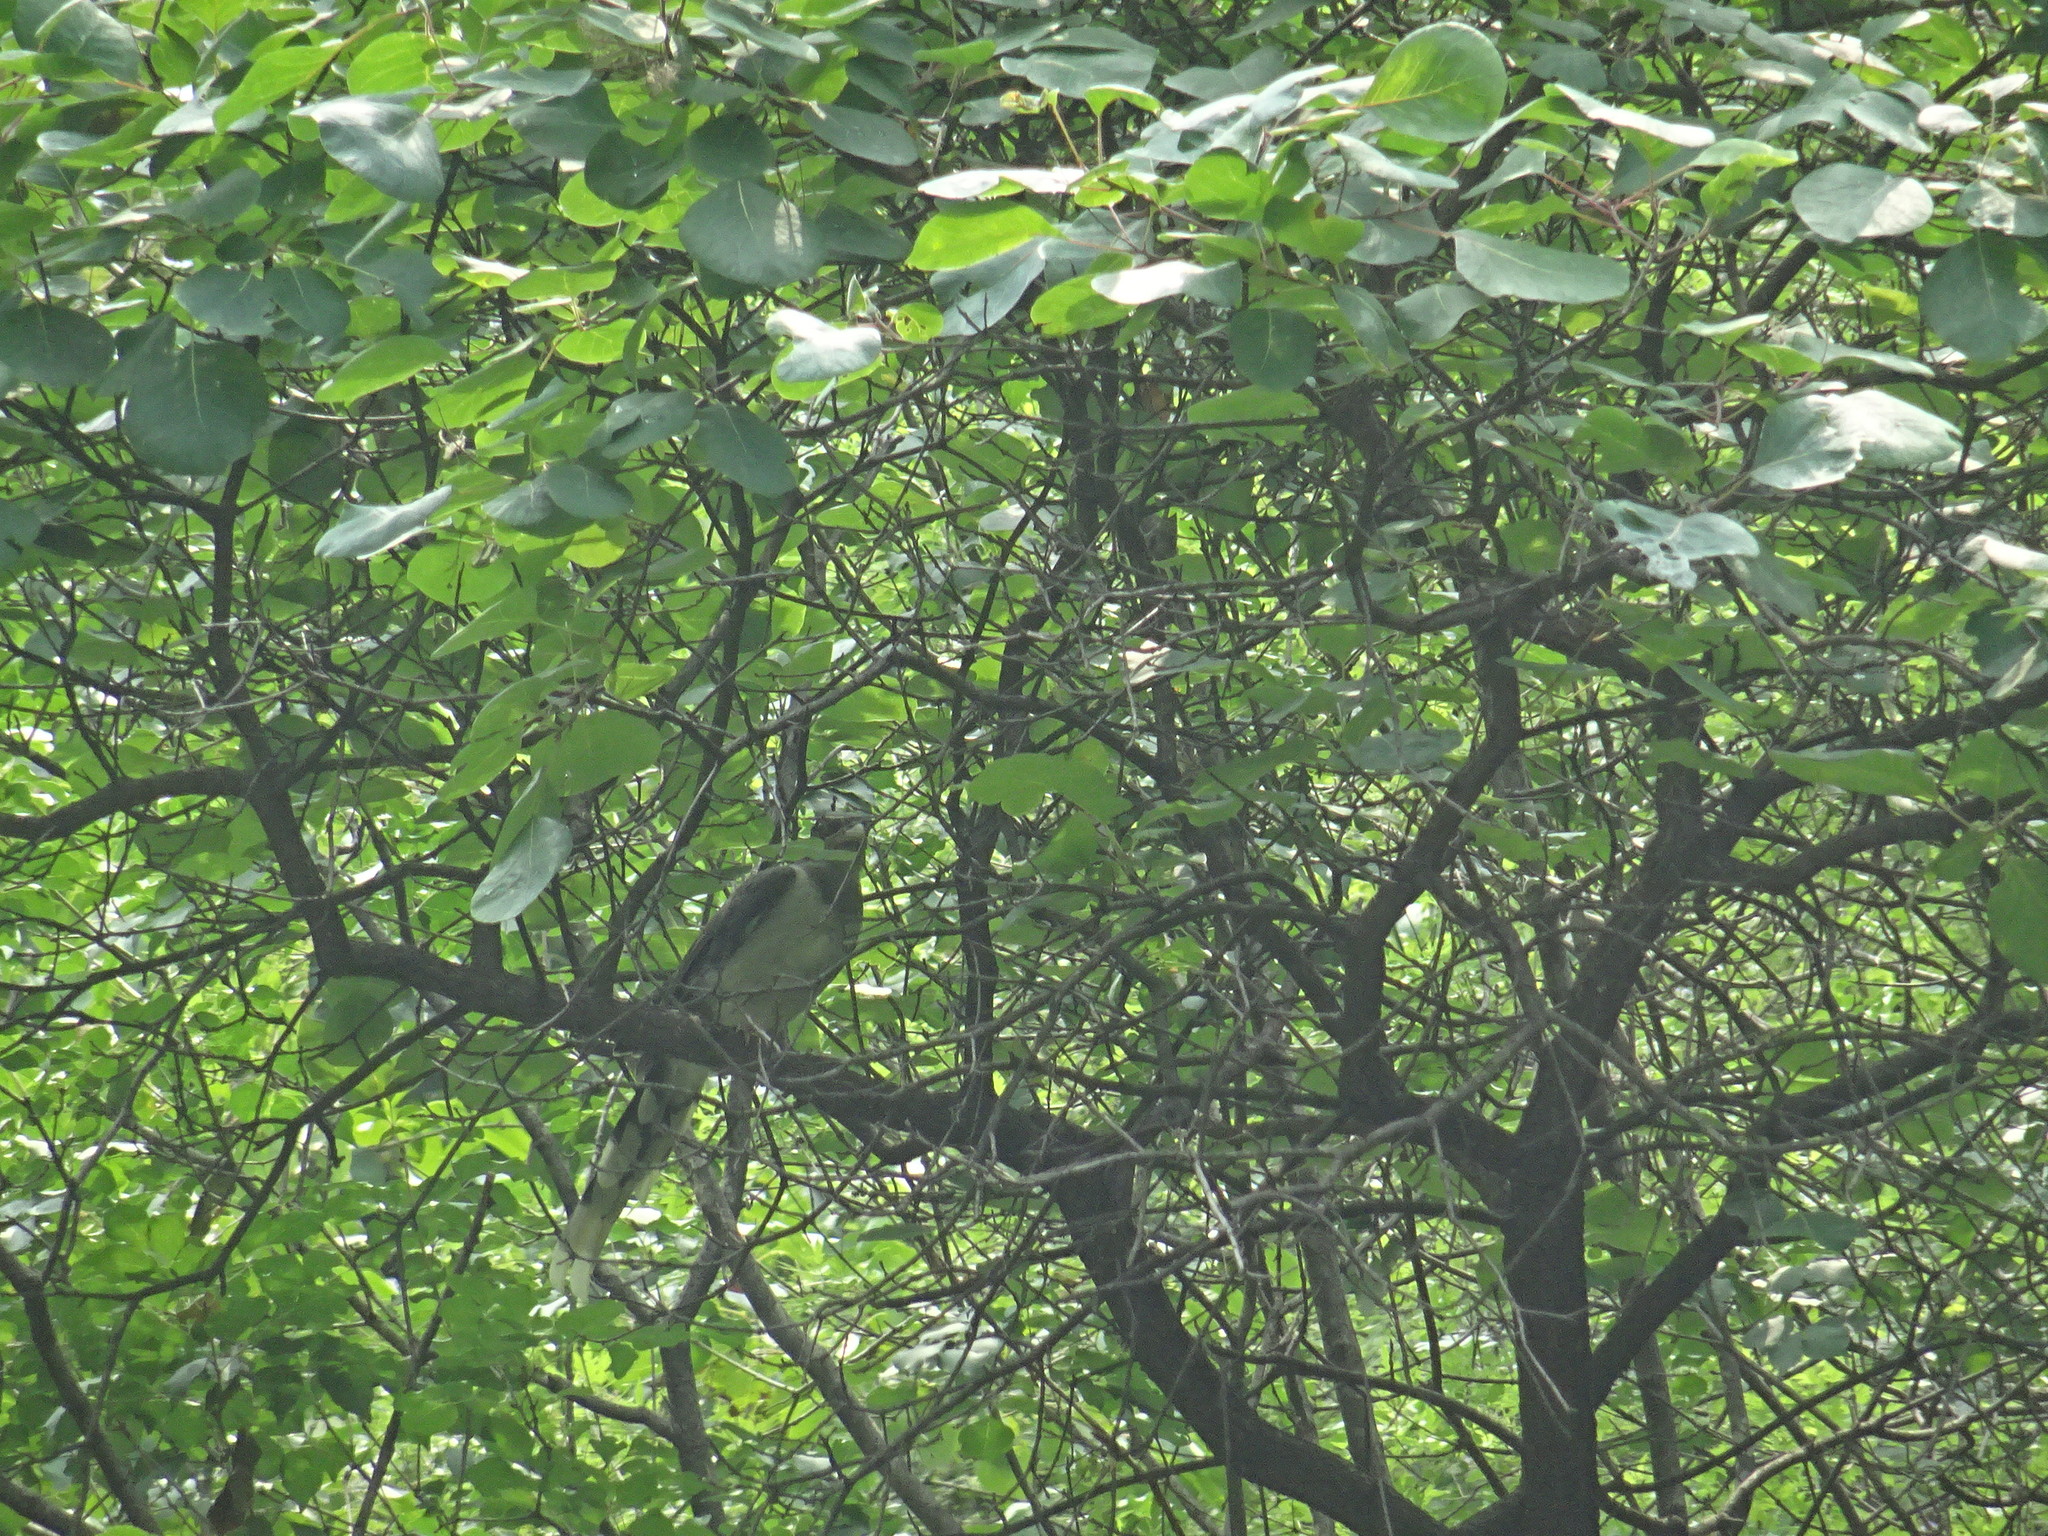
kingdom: Animalia
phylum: Chordata
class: Aves
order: Passeriformes
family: Corvidae
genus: Urocissa
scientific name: Urocissa erythroryncha
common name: Red-billed blue magpie
